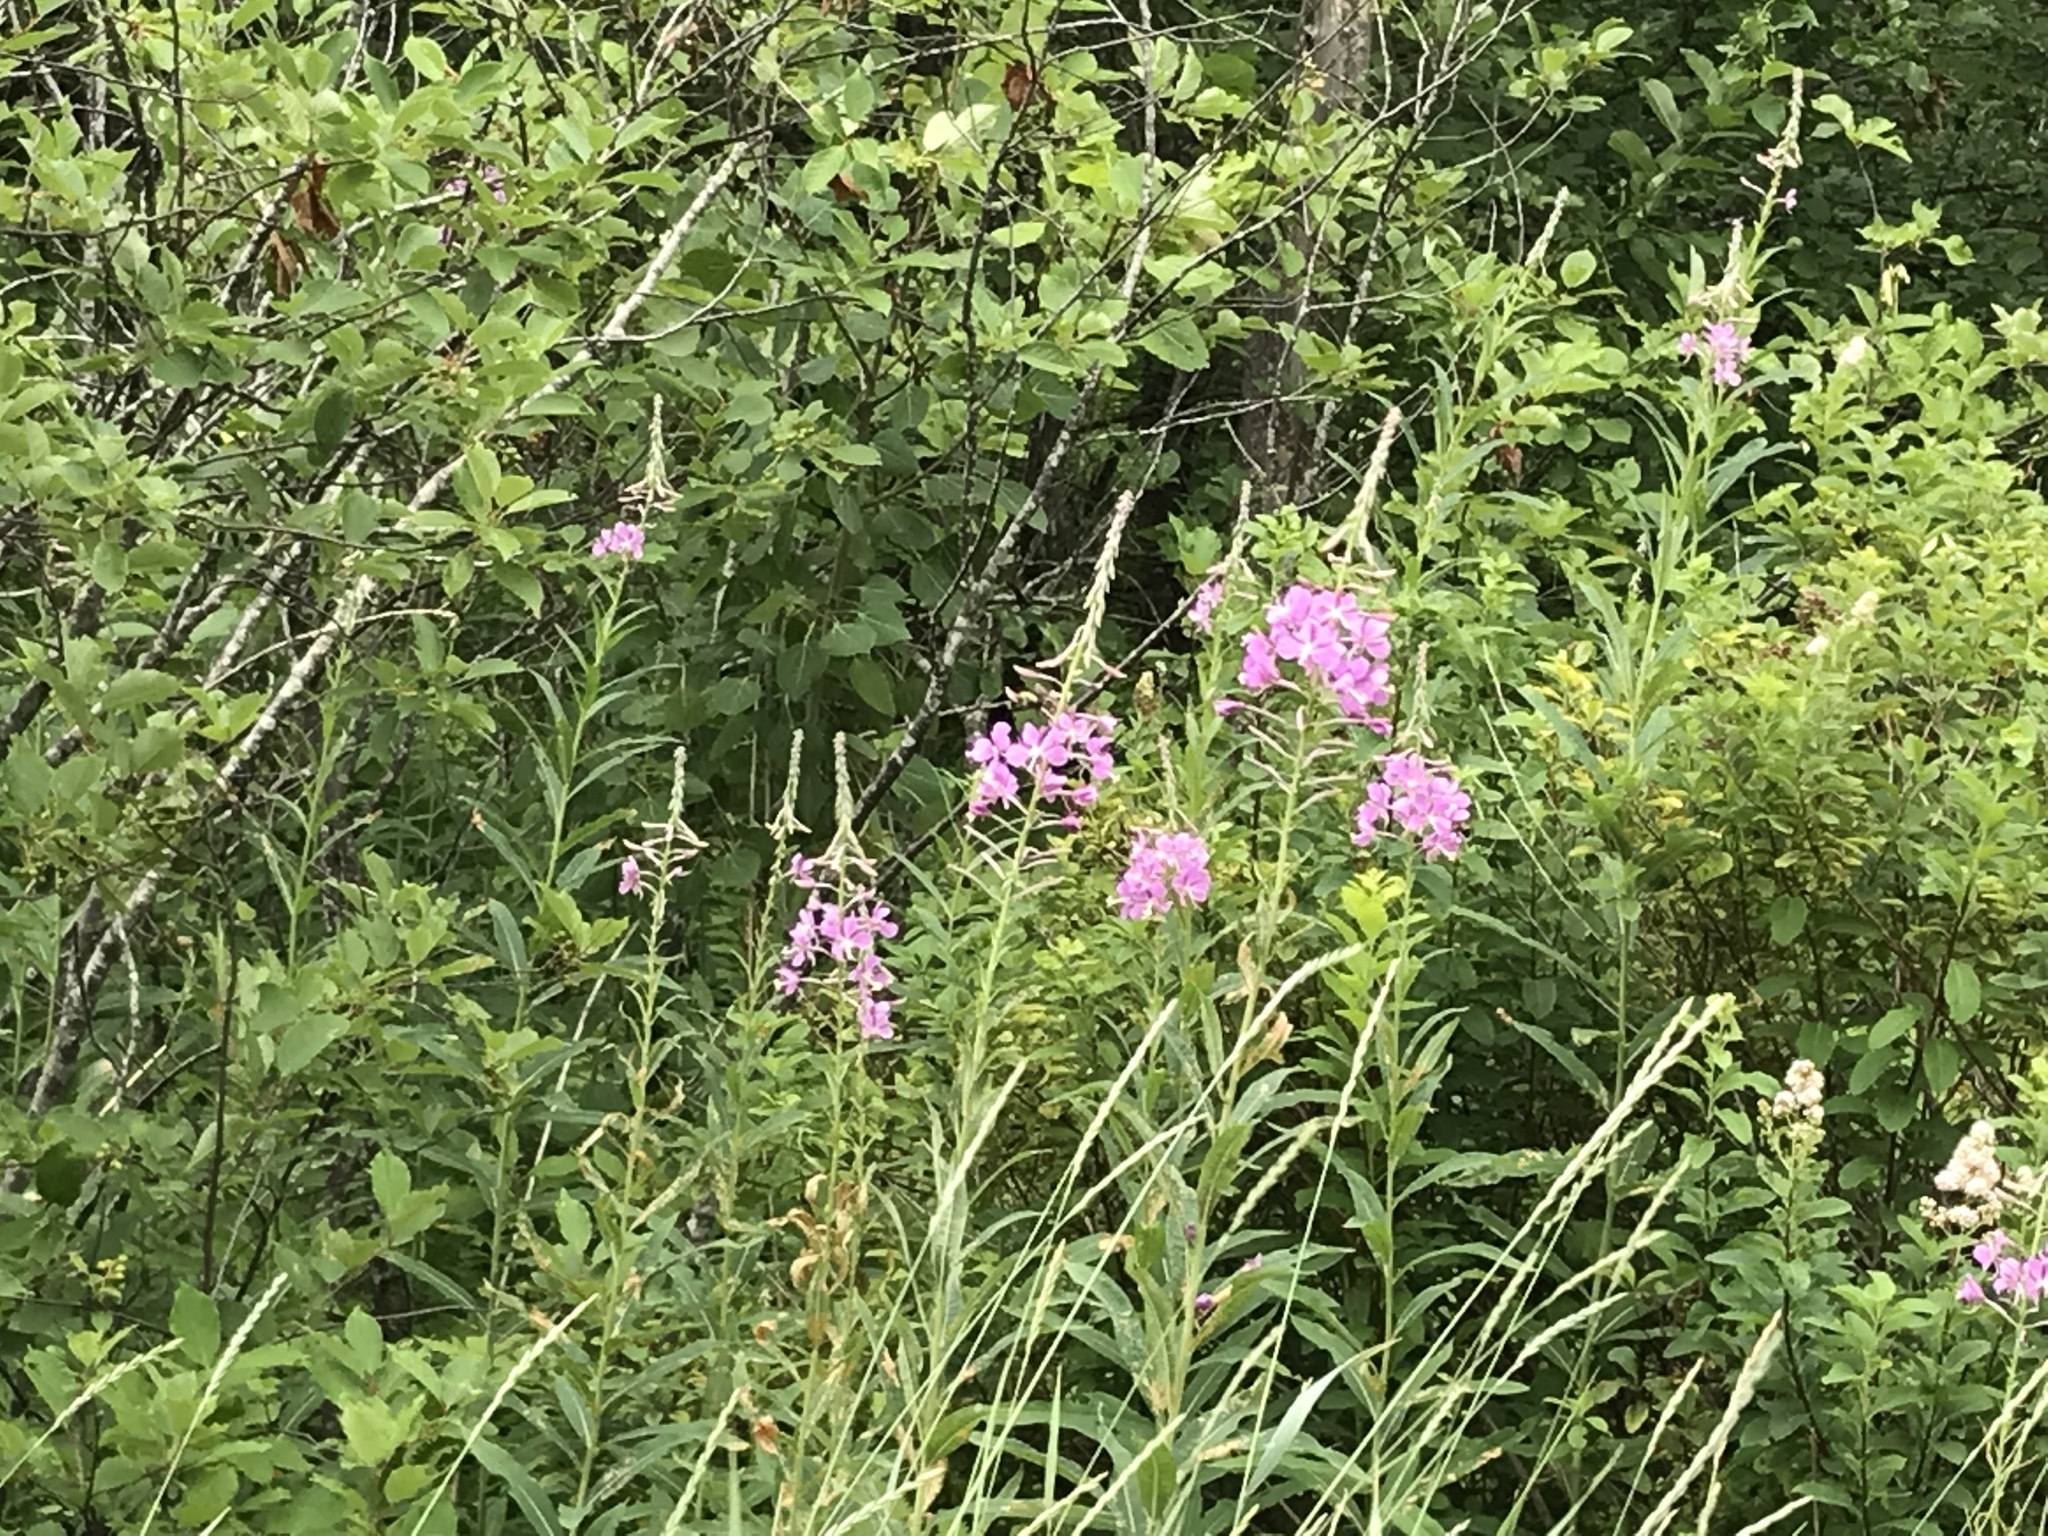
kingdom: Plantae
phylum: Tracheophyta
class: Magnoliopsida
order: Myrtales
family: Onagraceae
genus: Chamaenerion
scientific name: Chamaenerion angustifolium
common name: Fireweed
